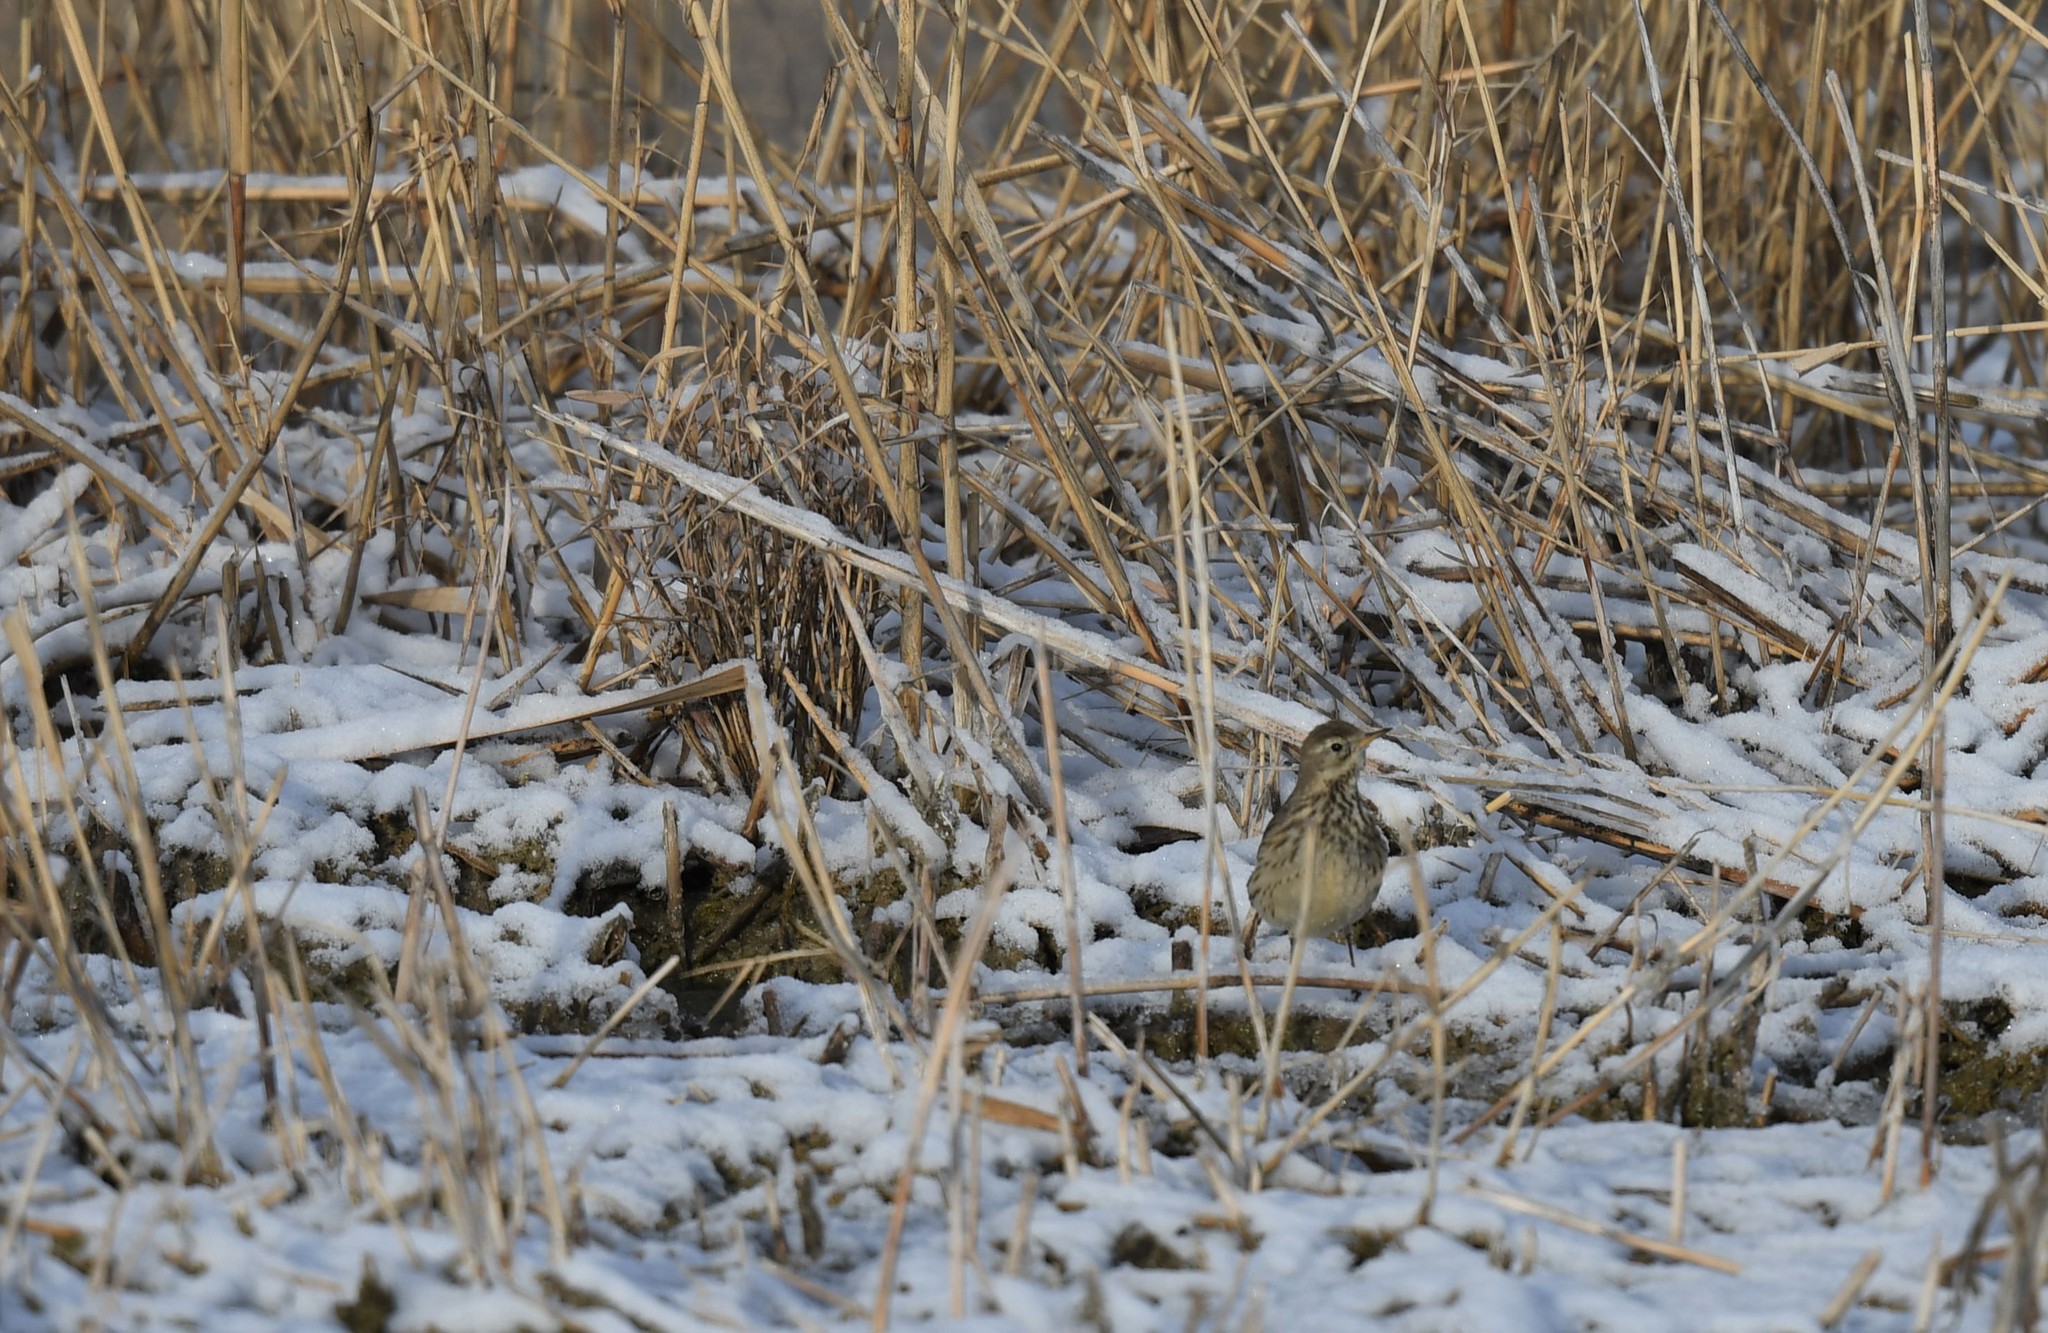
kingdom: Animalia
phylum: Chordata
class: Aves
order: Passeriformes
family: Motacillidae
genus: Anthus
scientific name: Anthus rubescens
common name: Buff-bellied pipit
